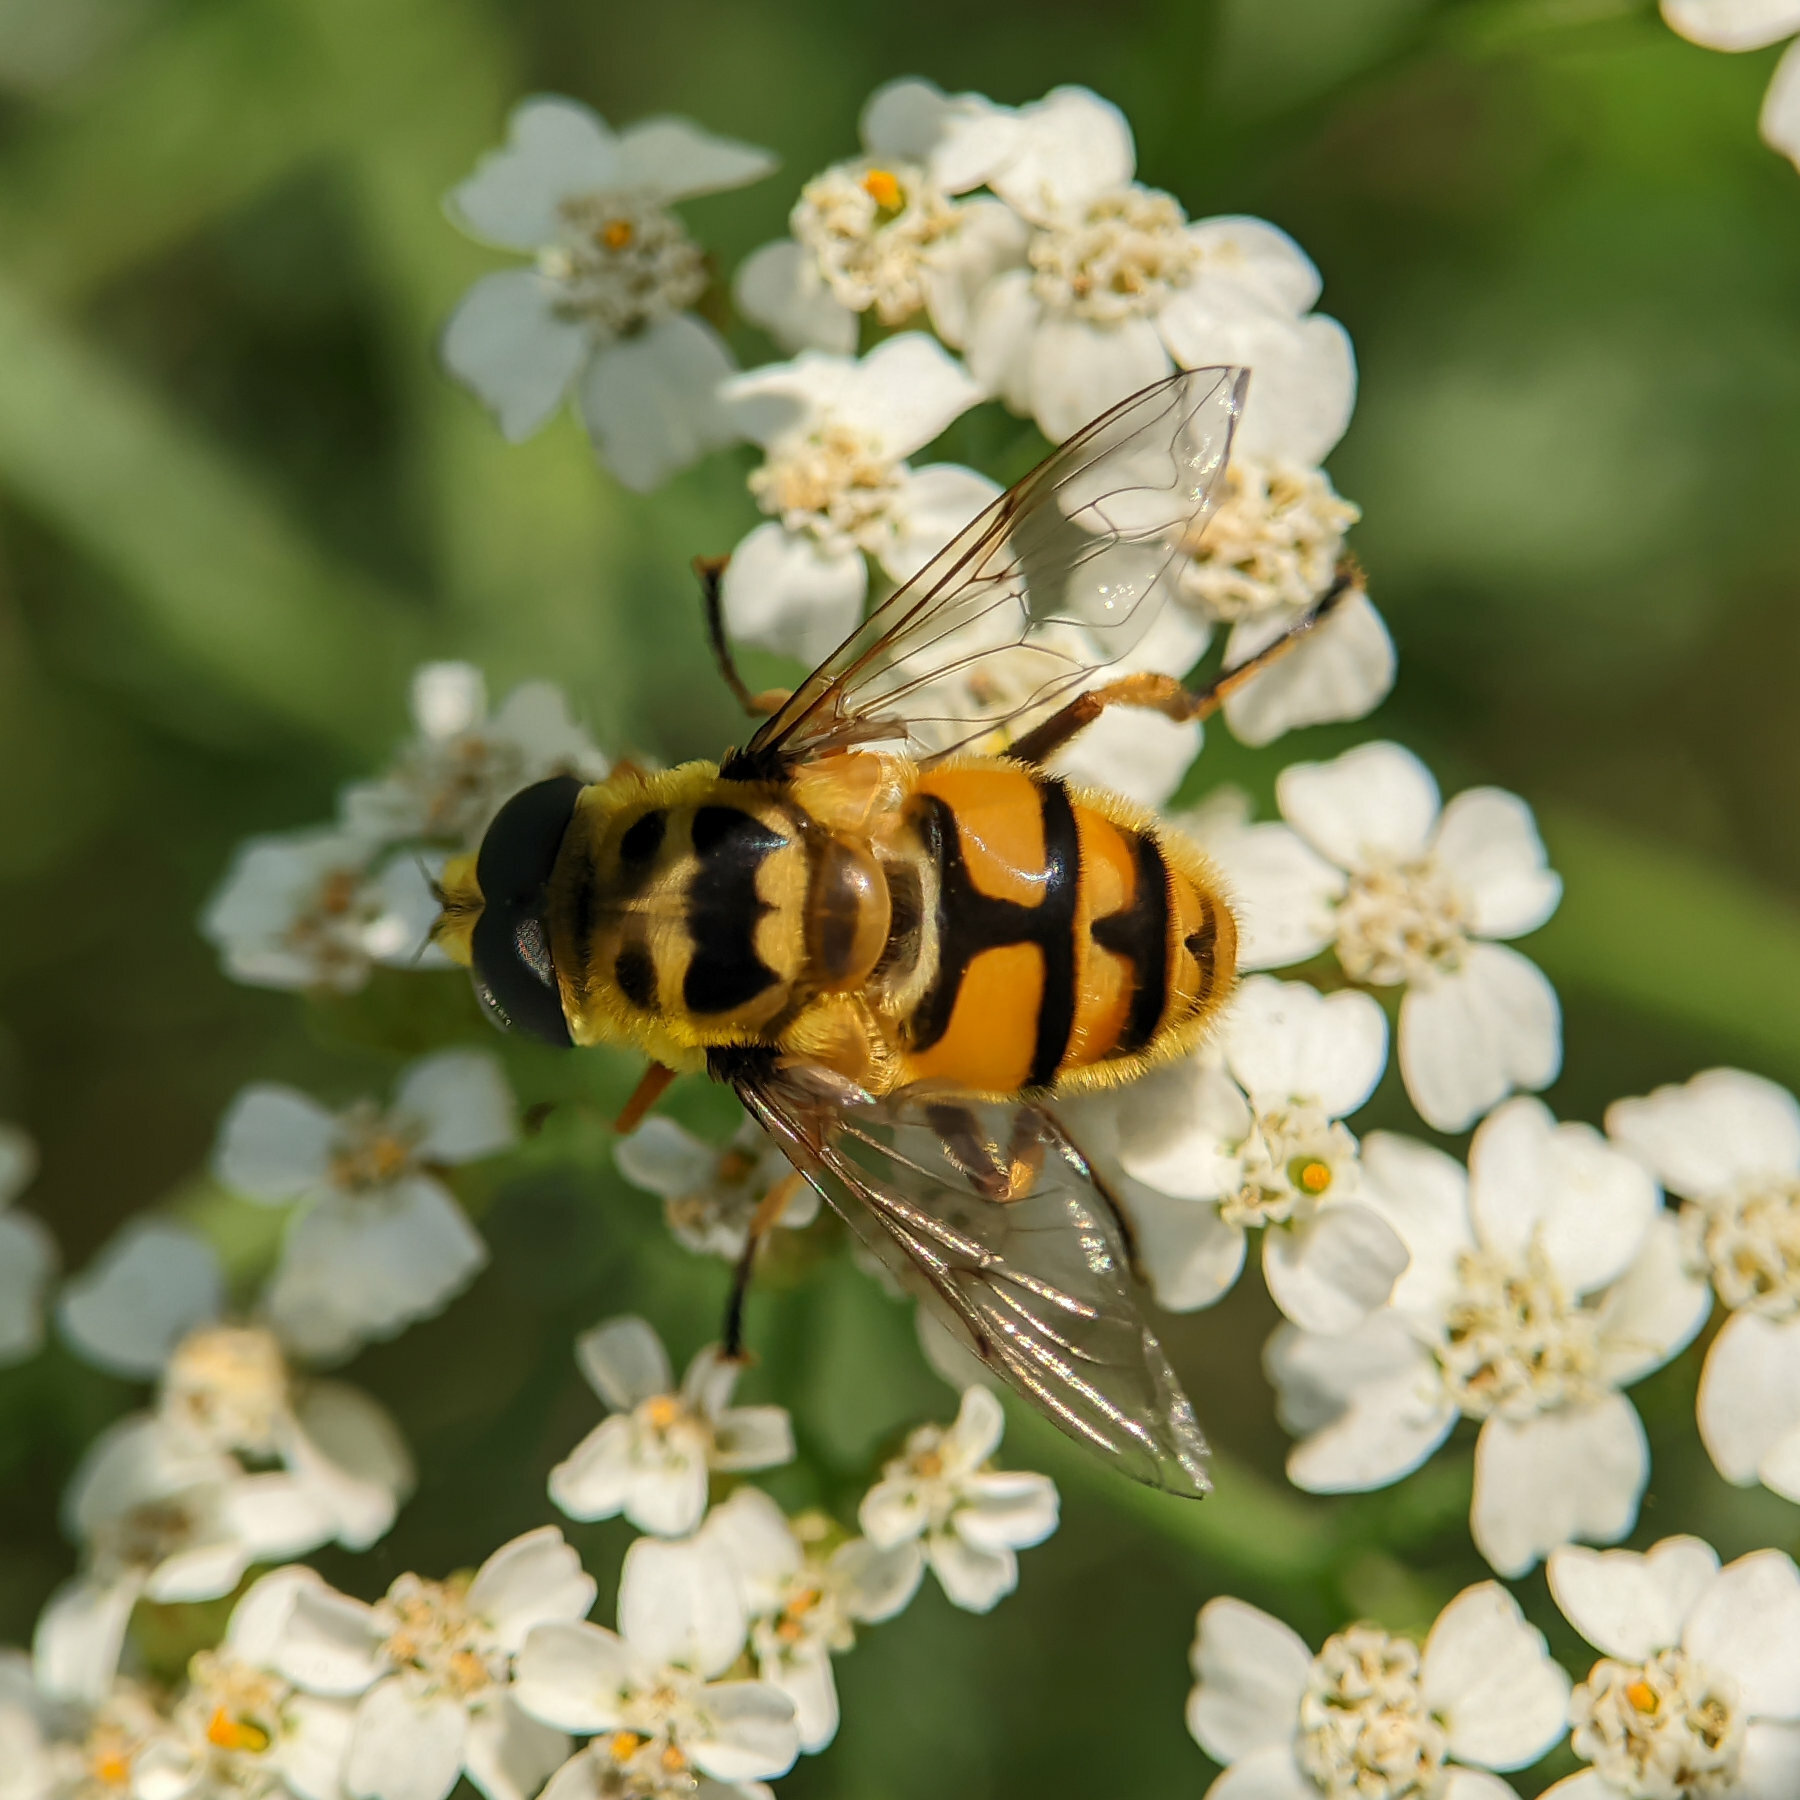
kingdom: Animalia
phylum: Arthropoda
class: Insecta
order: Diptera
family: Syrphidae
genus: Myathropa
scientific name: Myathropa florea
